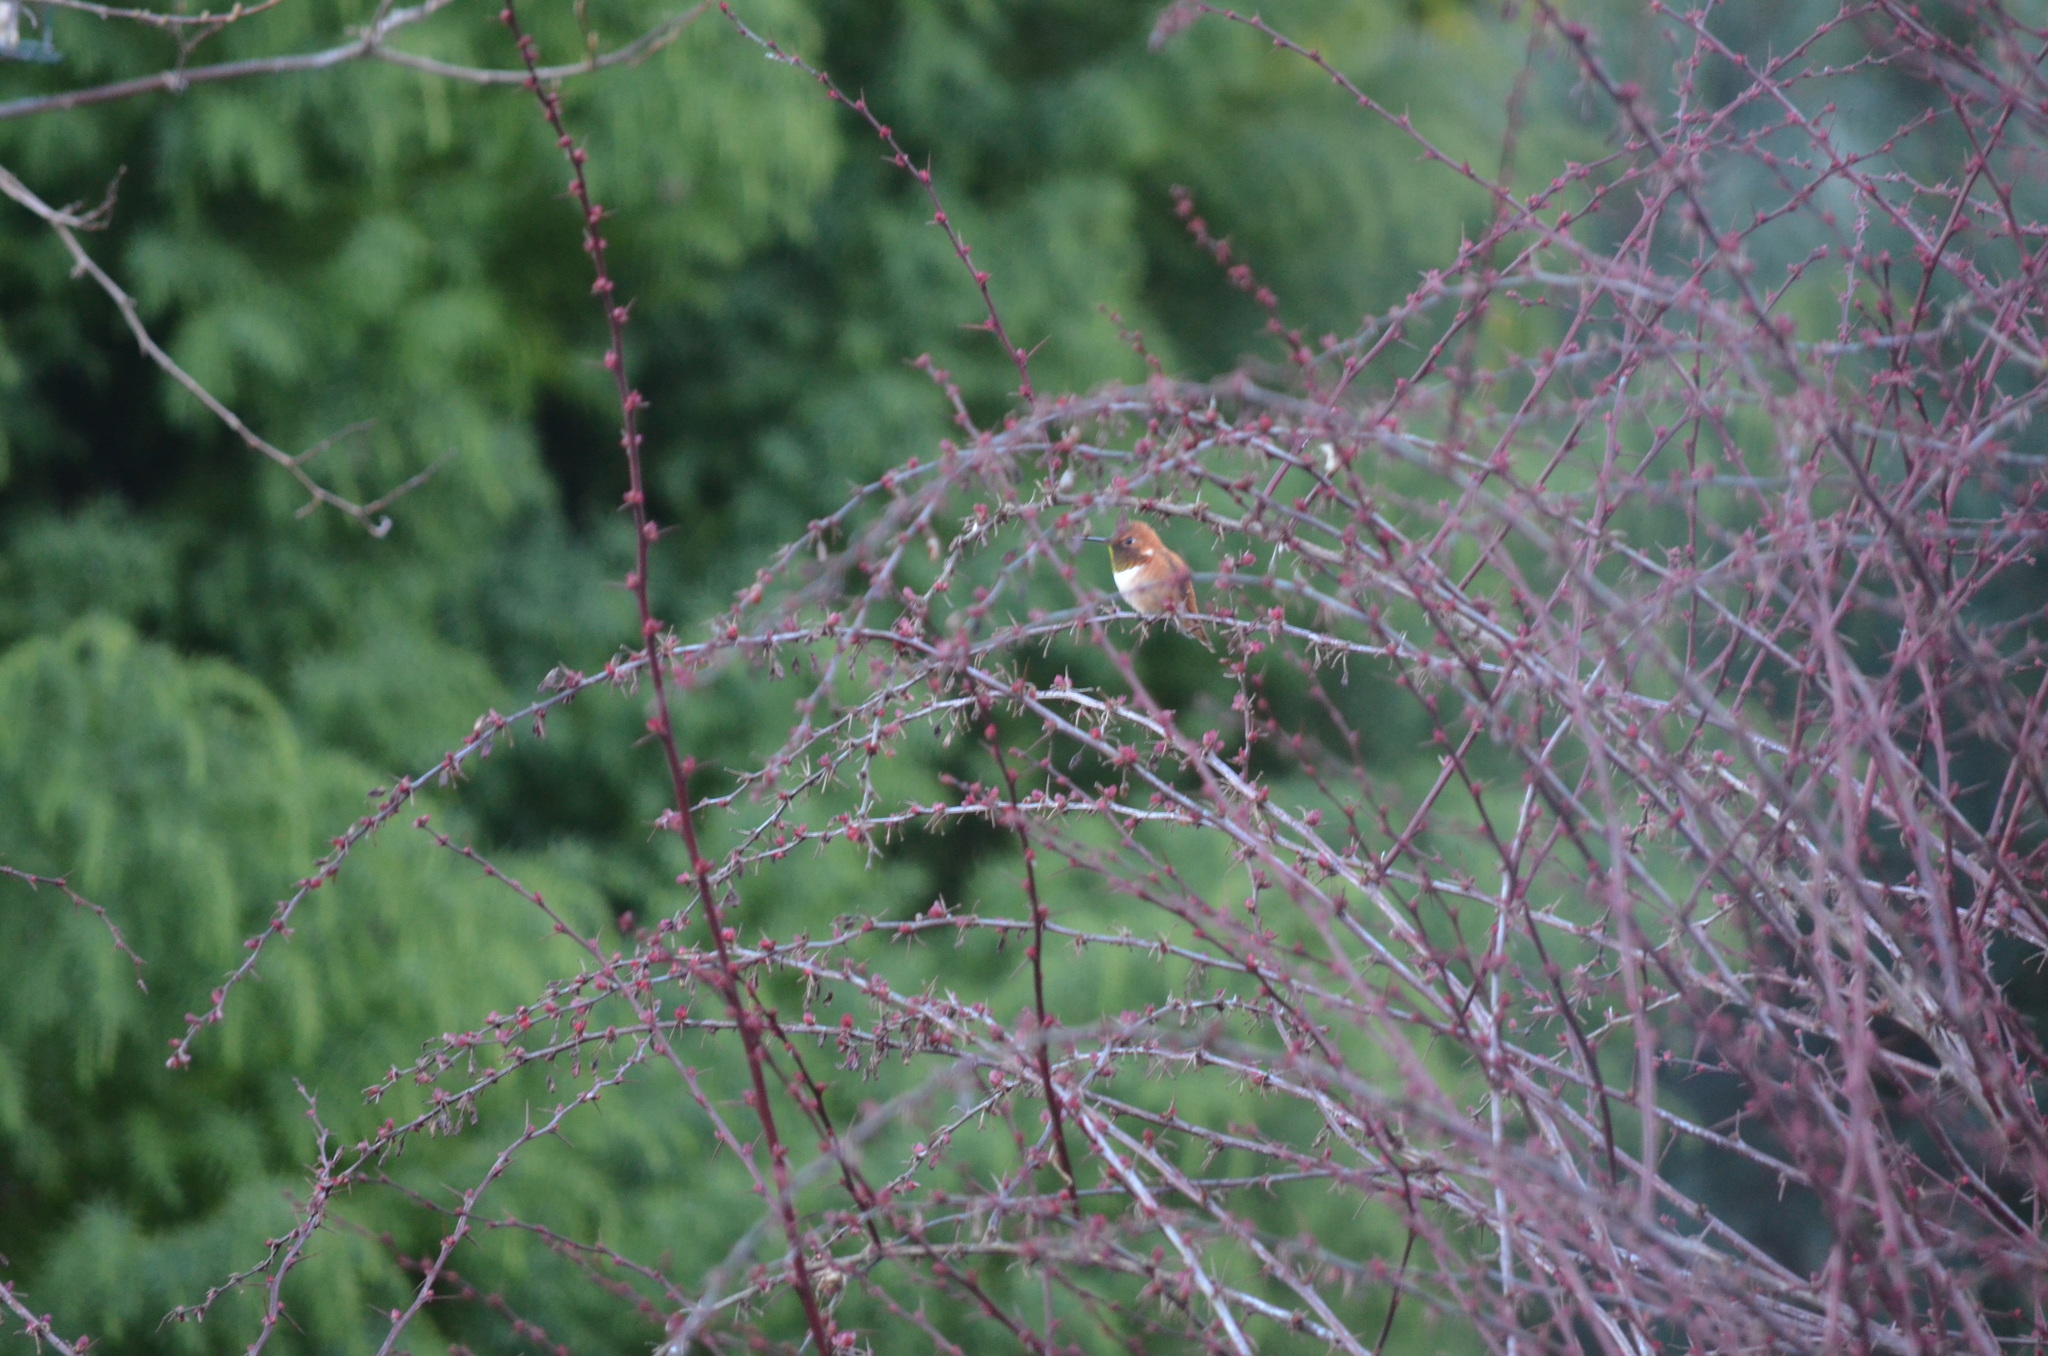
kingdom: Animalia
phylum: Chordata
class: Aves
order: Apodiformes
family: Trochilidae
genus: Selasphorus
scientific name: Selasphorus rufus
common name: Rufous hummingbird
